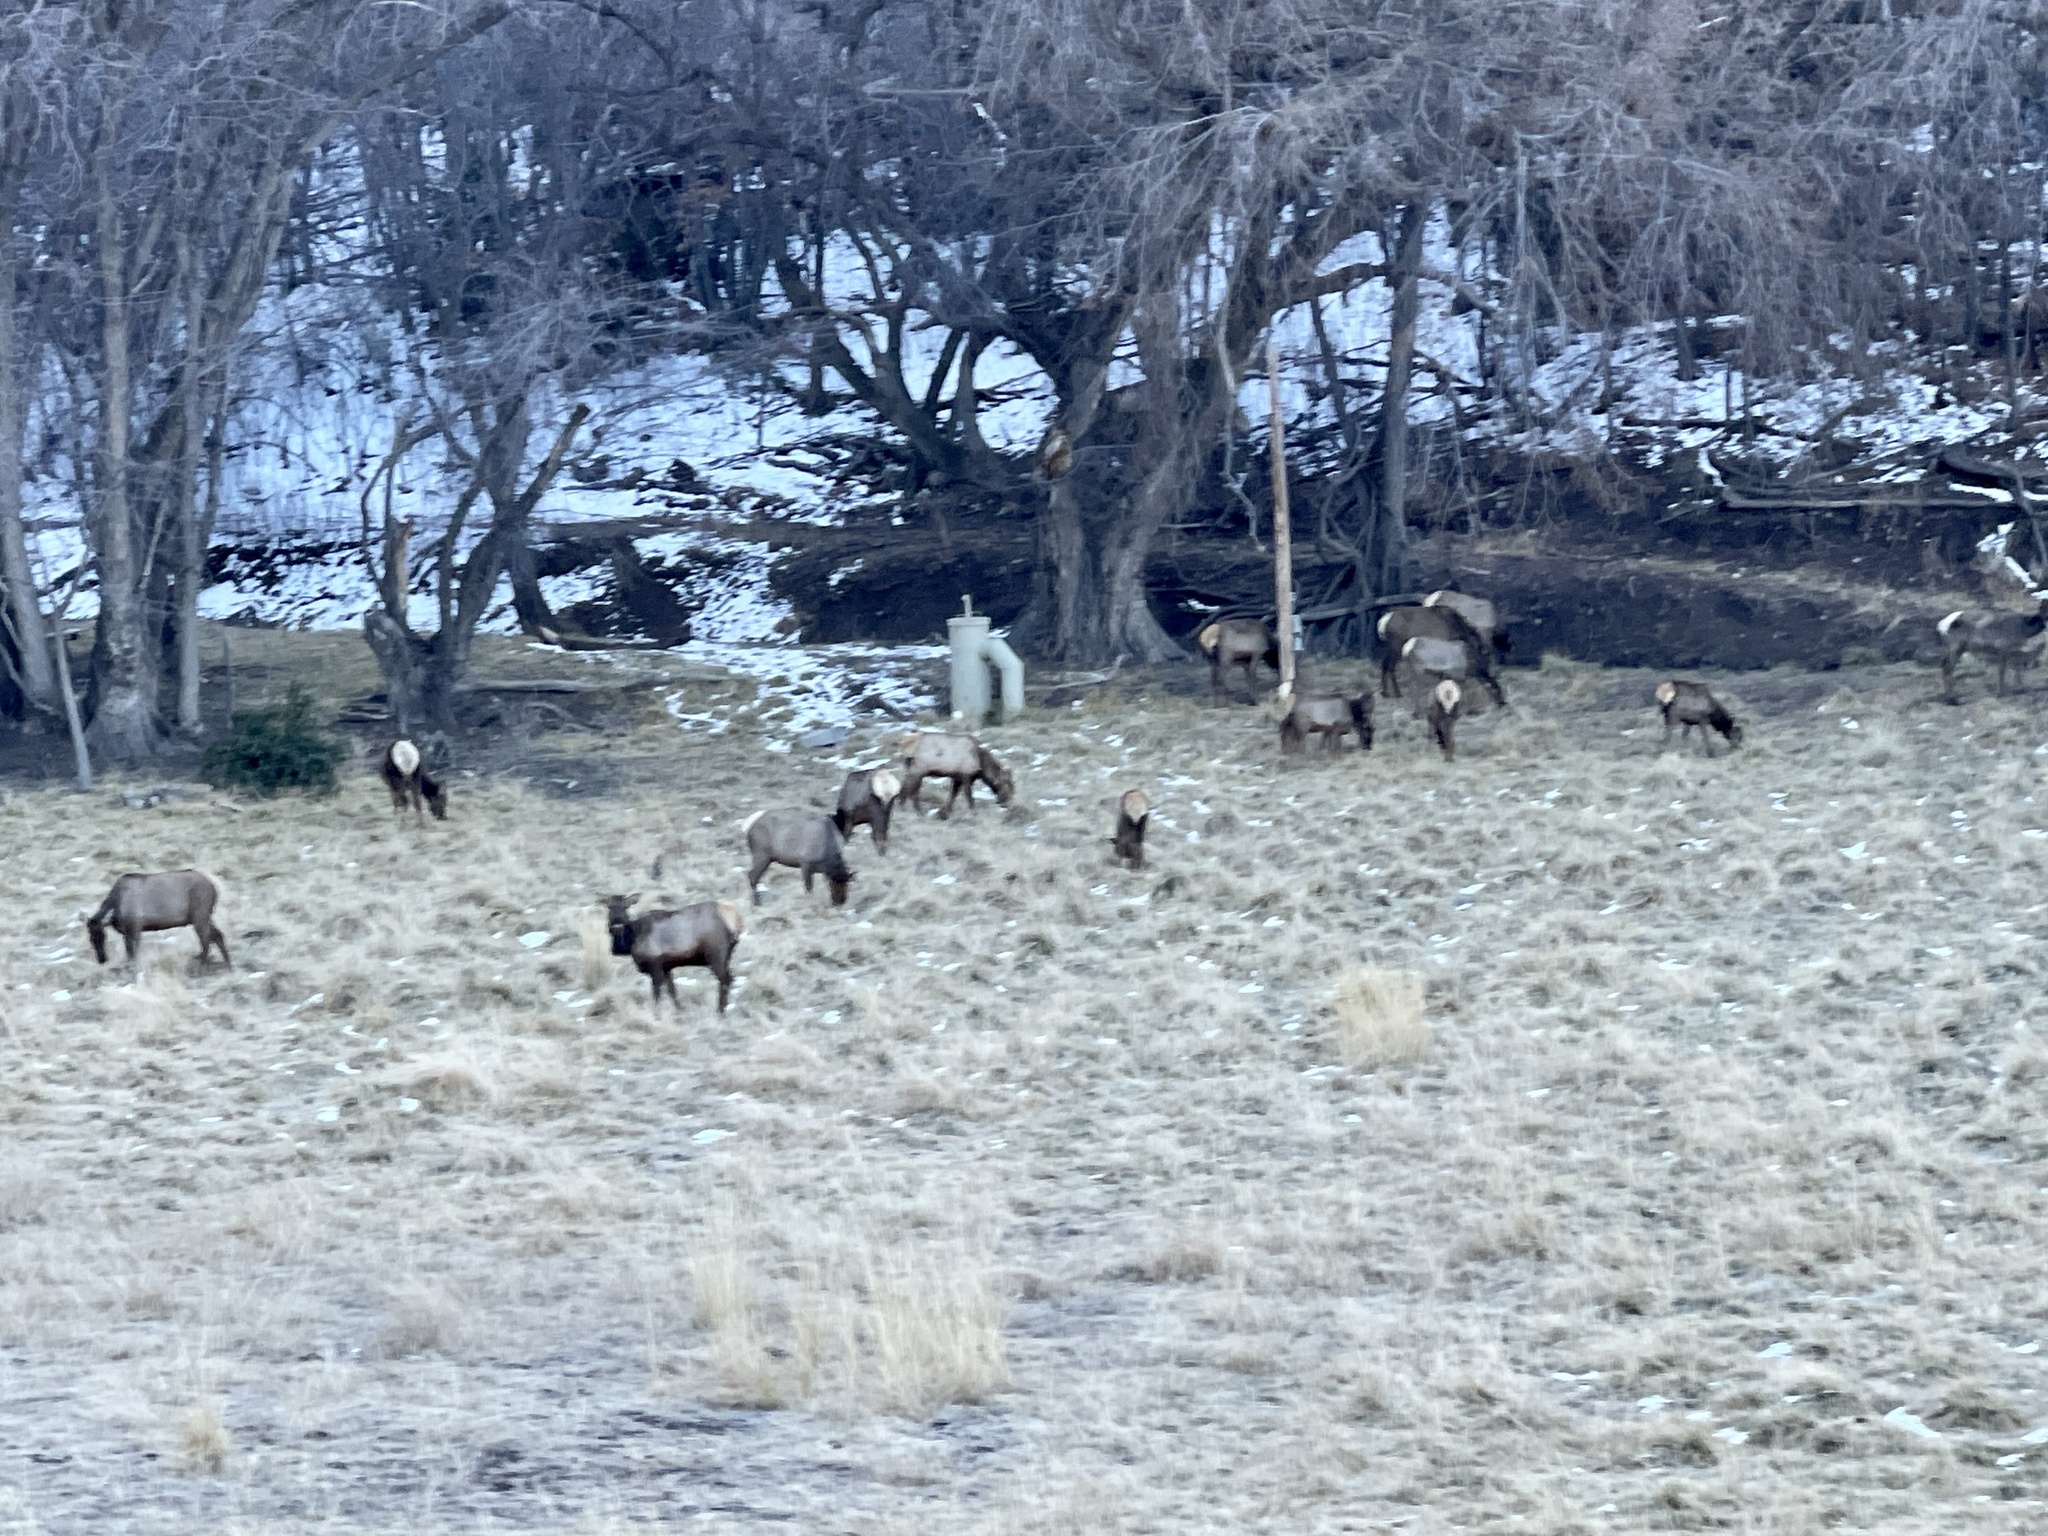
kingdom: Animalia
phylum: Chordata
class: Mammalia
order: Artiodactyla
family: Cervidae
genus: Cervus
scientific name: Cervus elaphus
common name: Red deer
